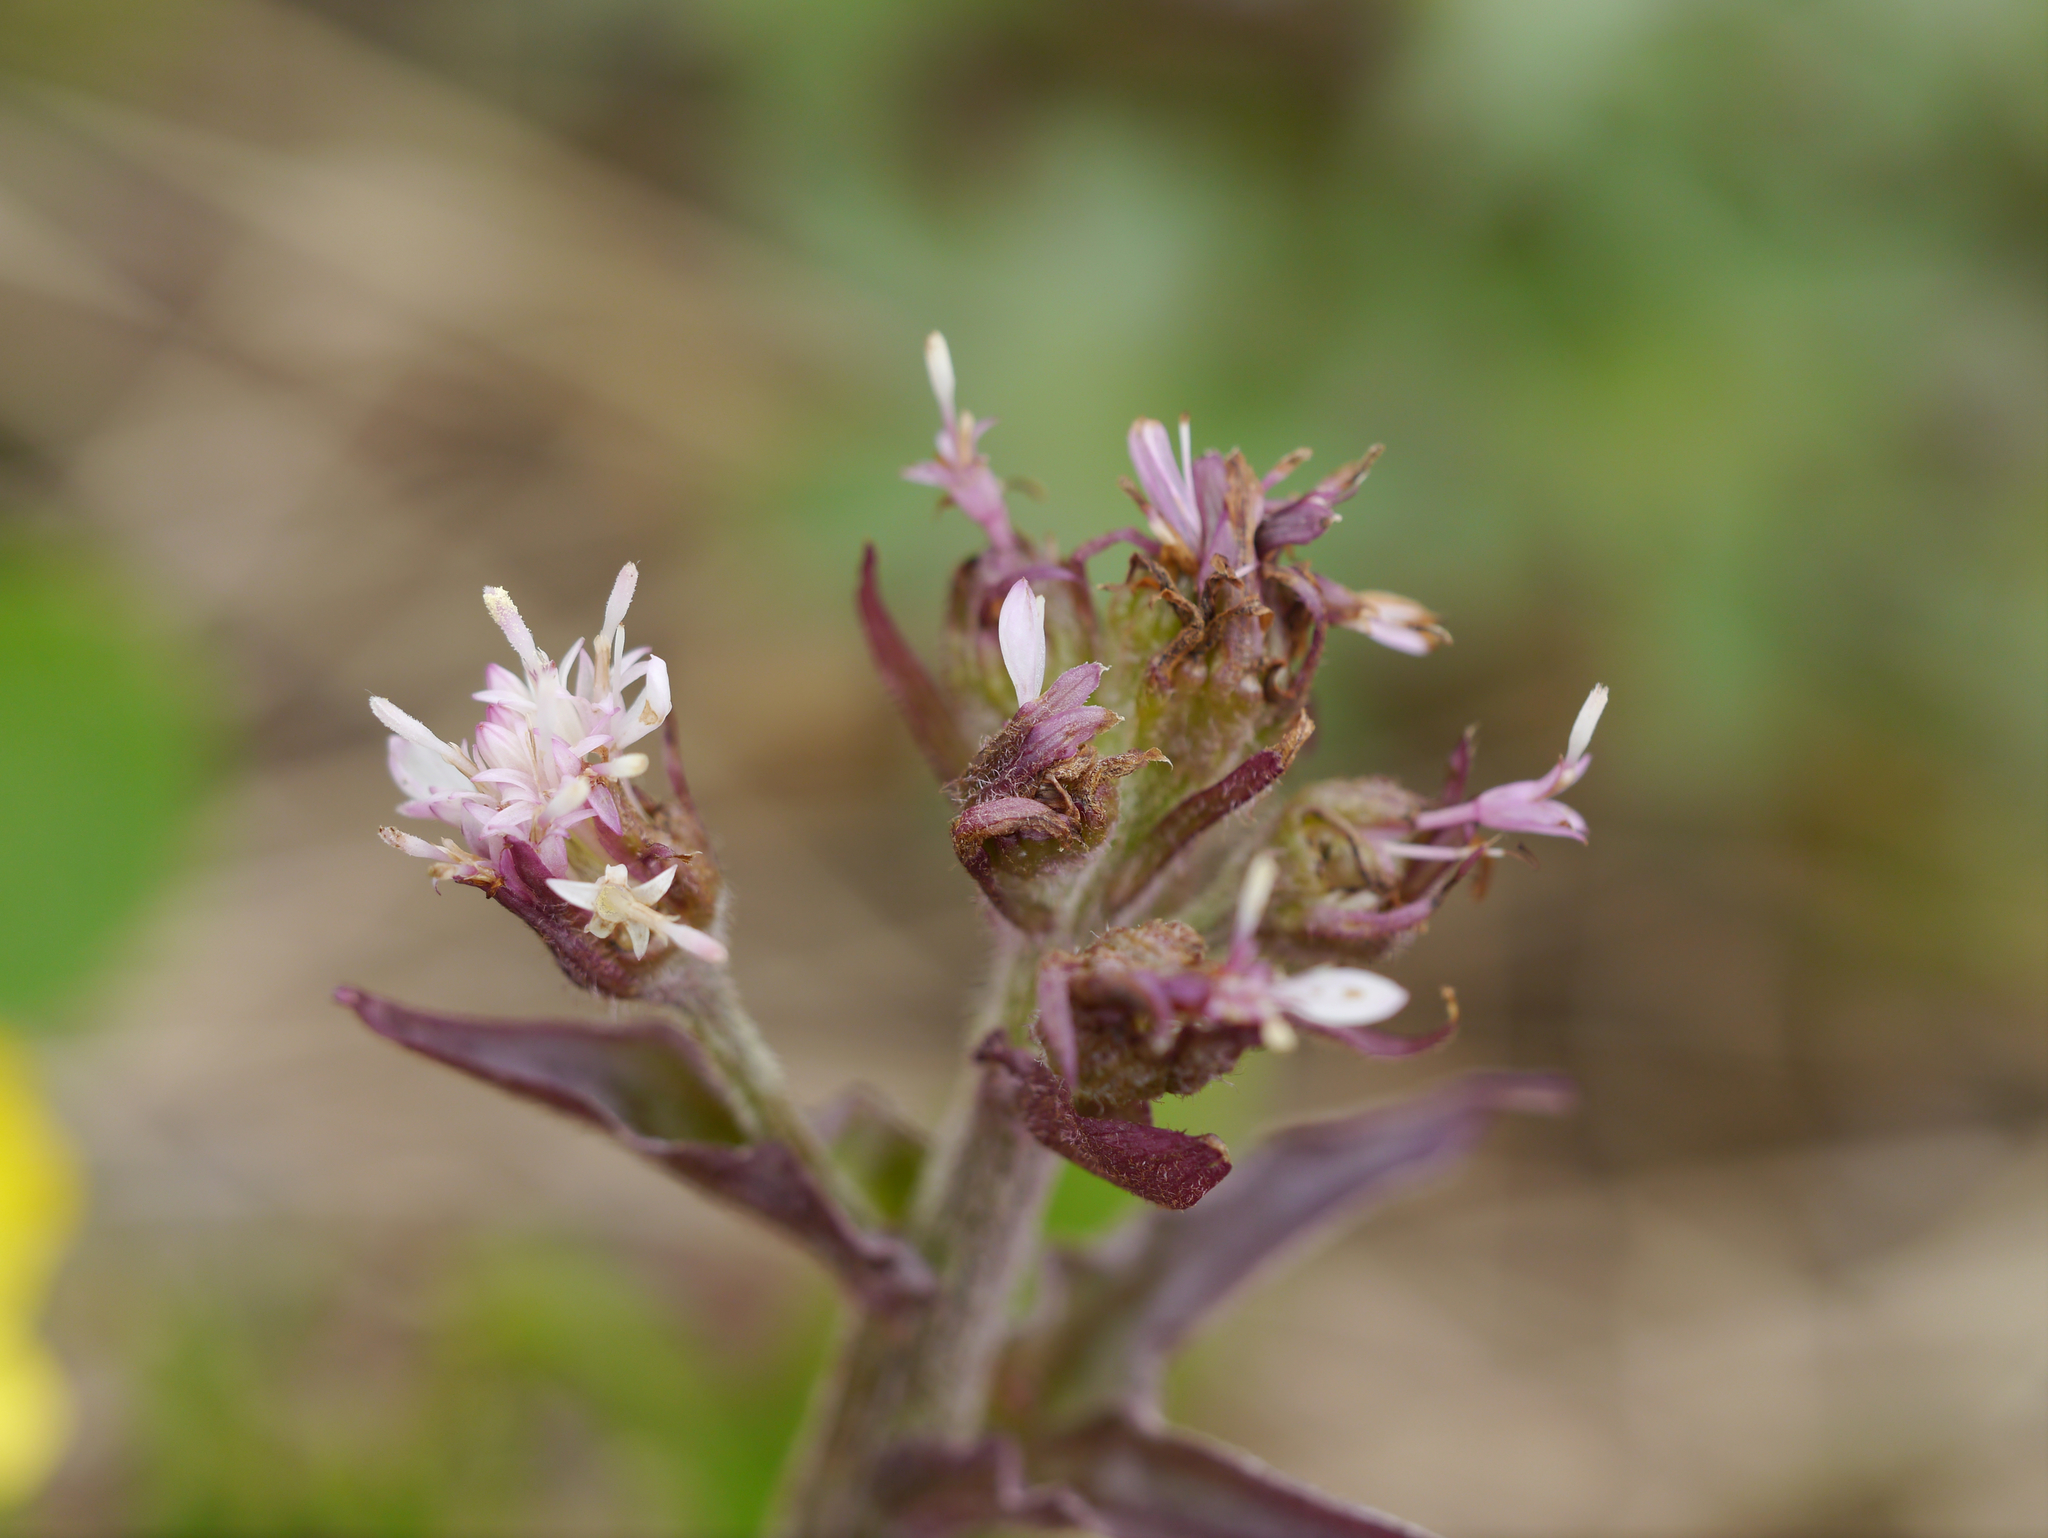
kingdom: Plantae
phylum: Tracheophyta
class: Magnoliopsida
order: Asterales
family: Asteraceae
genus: Petasites
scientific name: Petasites frigidus
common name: Arctic butterbur
